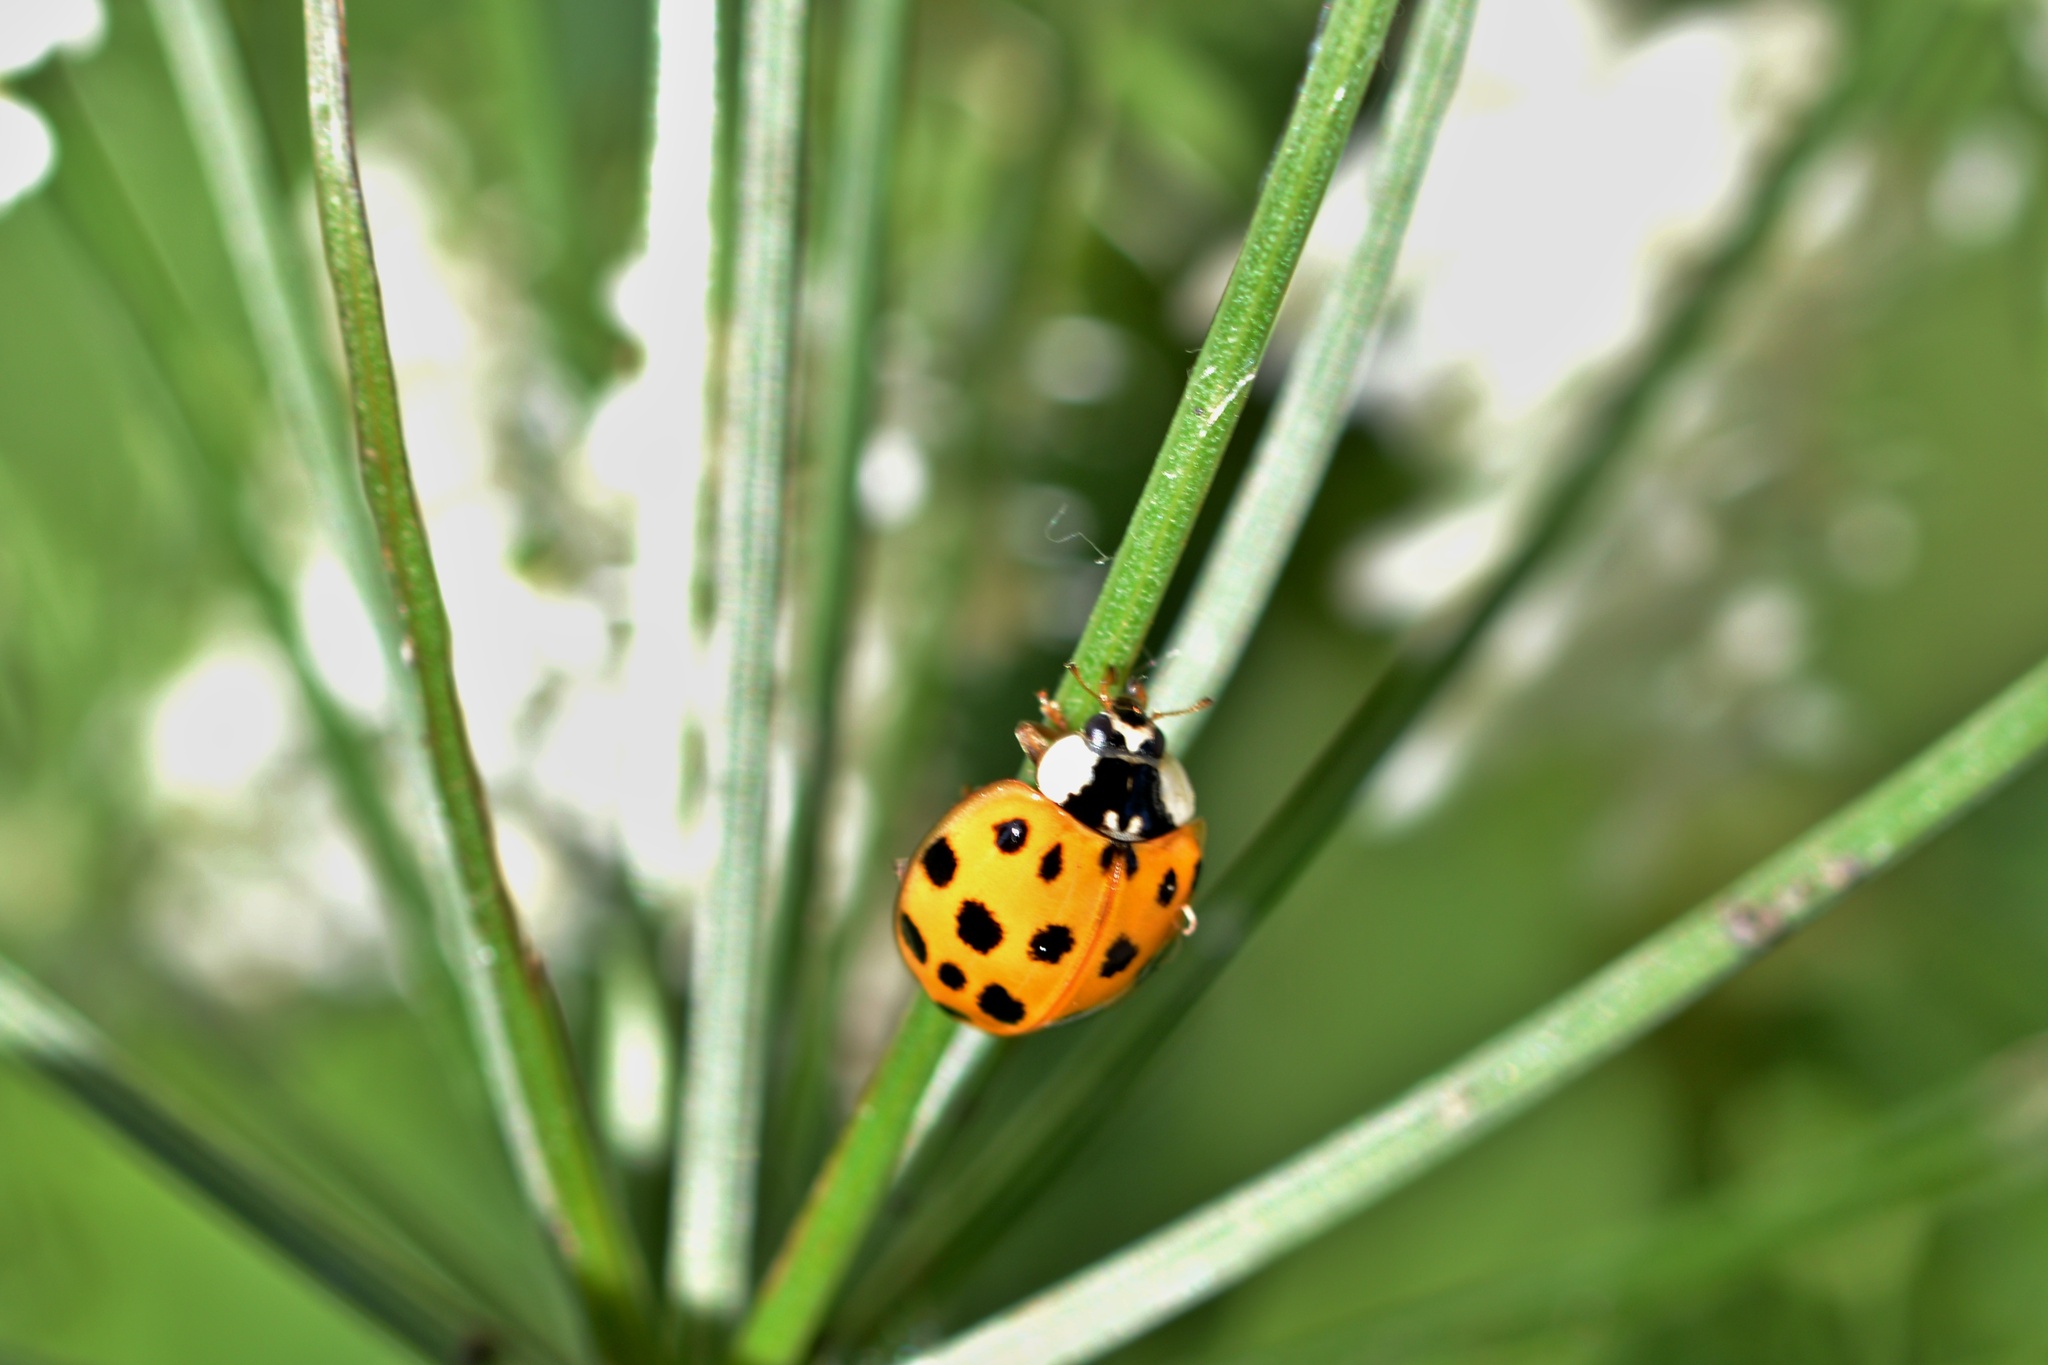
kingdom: Animalia
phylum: Arthropoda
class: Insecta
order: Coleoptera
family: Coccinellidae
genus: Harmonia
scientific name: Harmonia axyridis
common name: Harlequin ladybird
